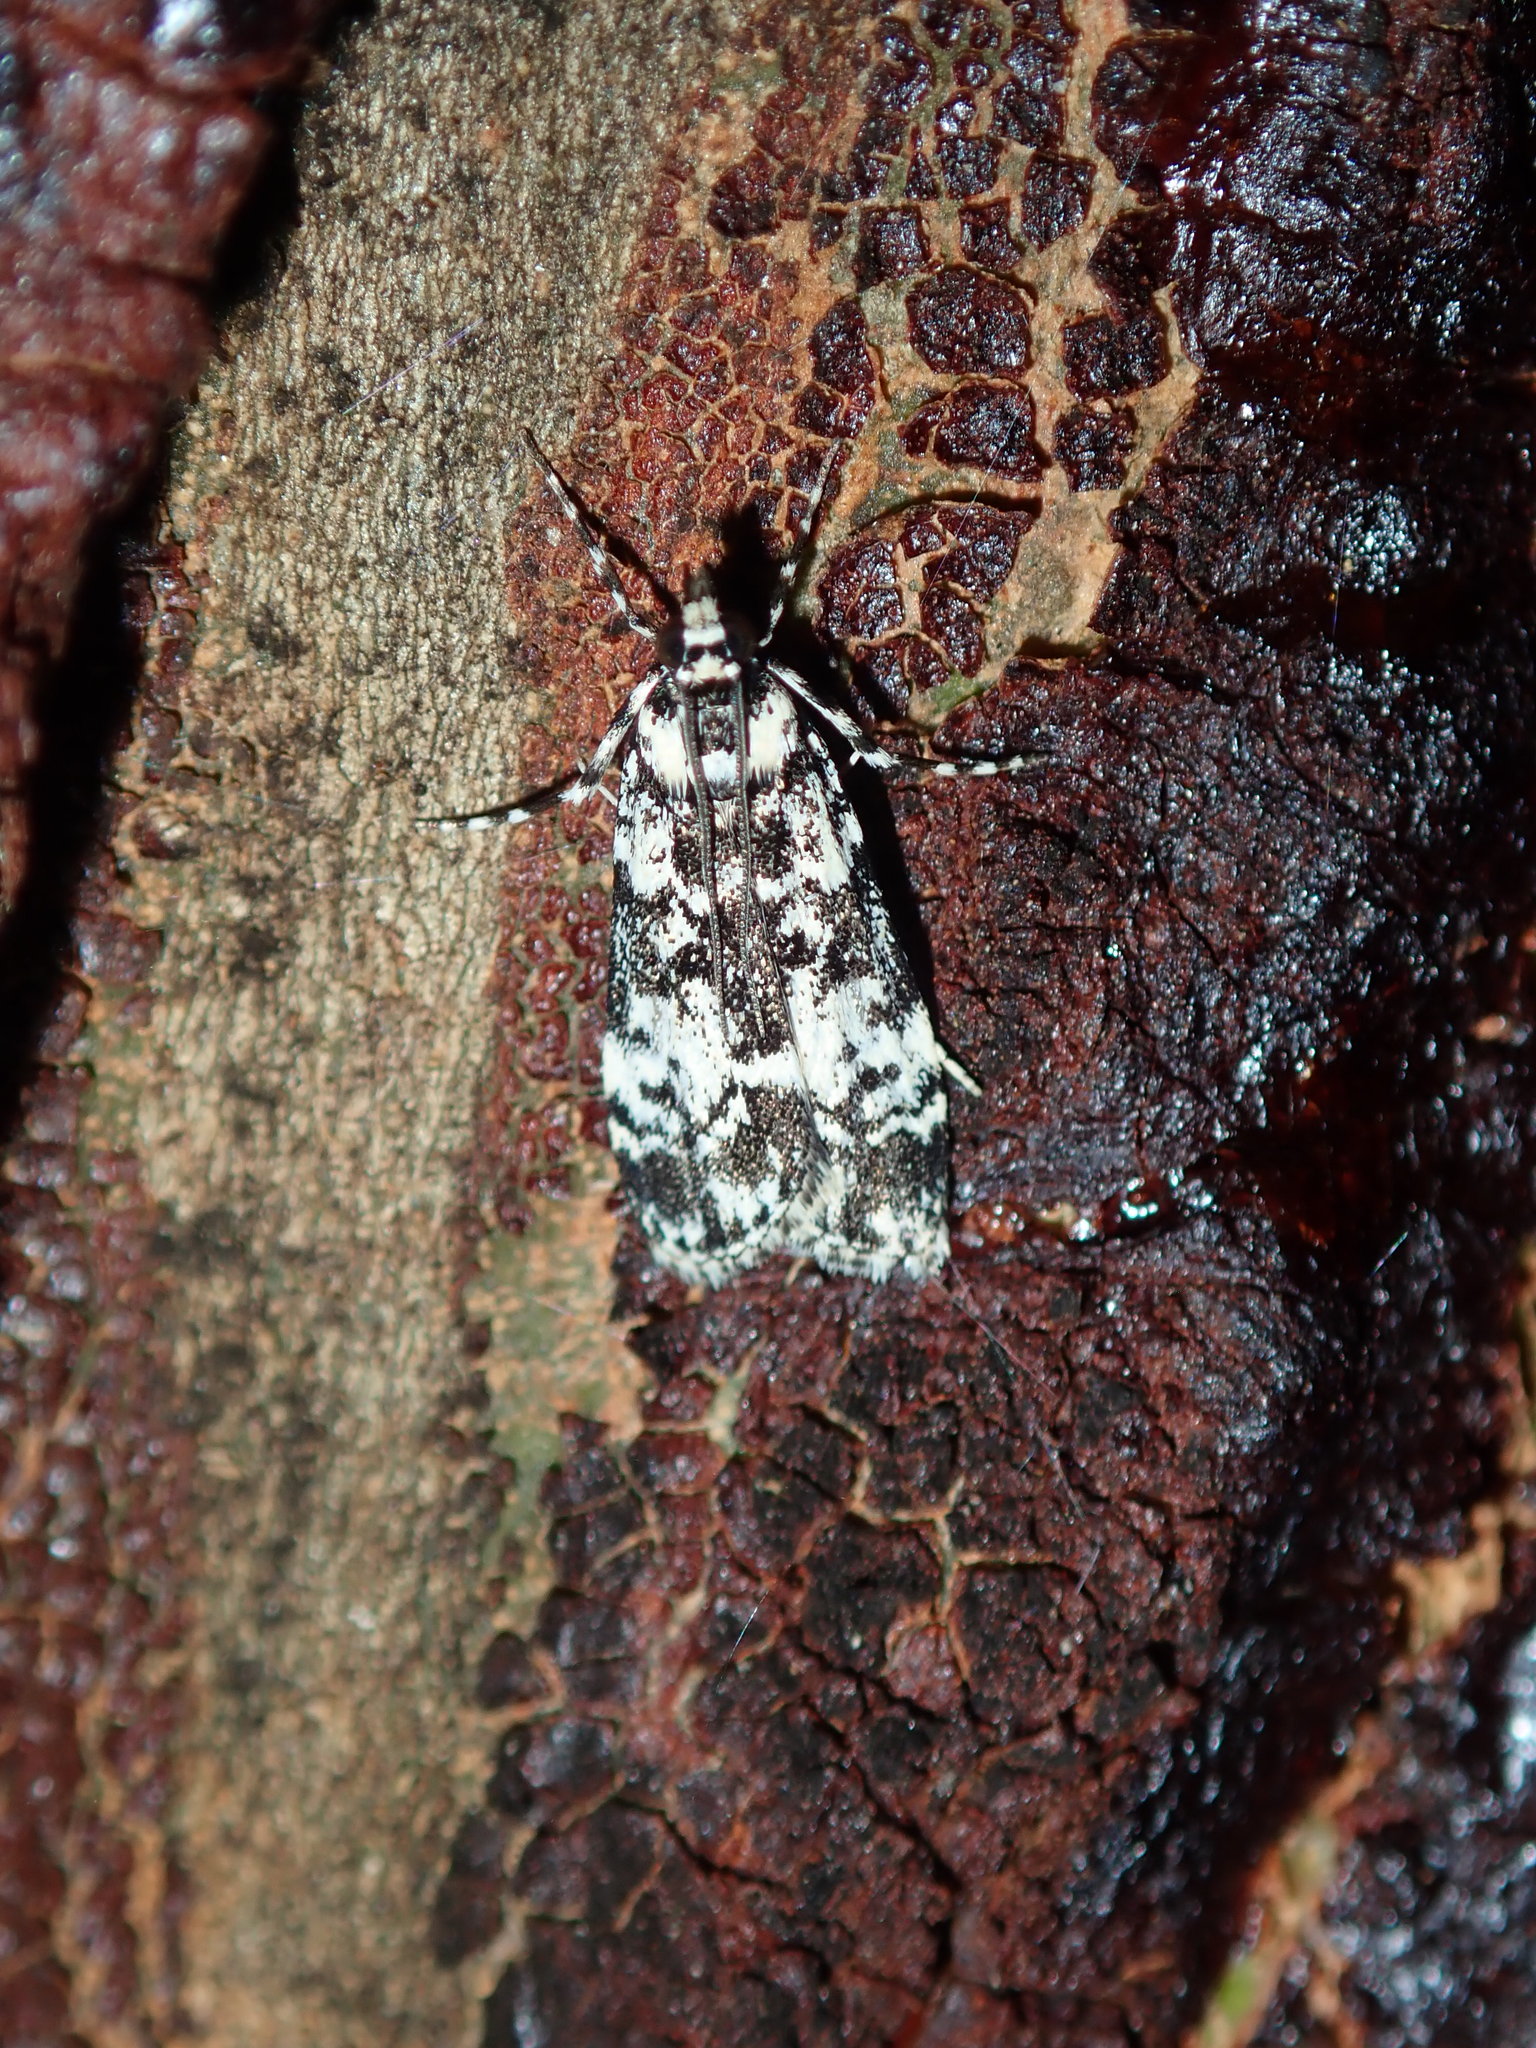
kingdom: Animalia
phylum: Arthropoda
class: Insecta
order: Lepidoptera
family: Crambidae
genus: Scoparia
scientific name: Scoparia exhibitalis
